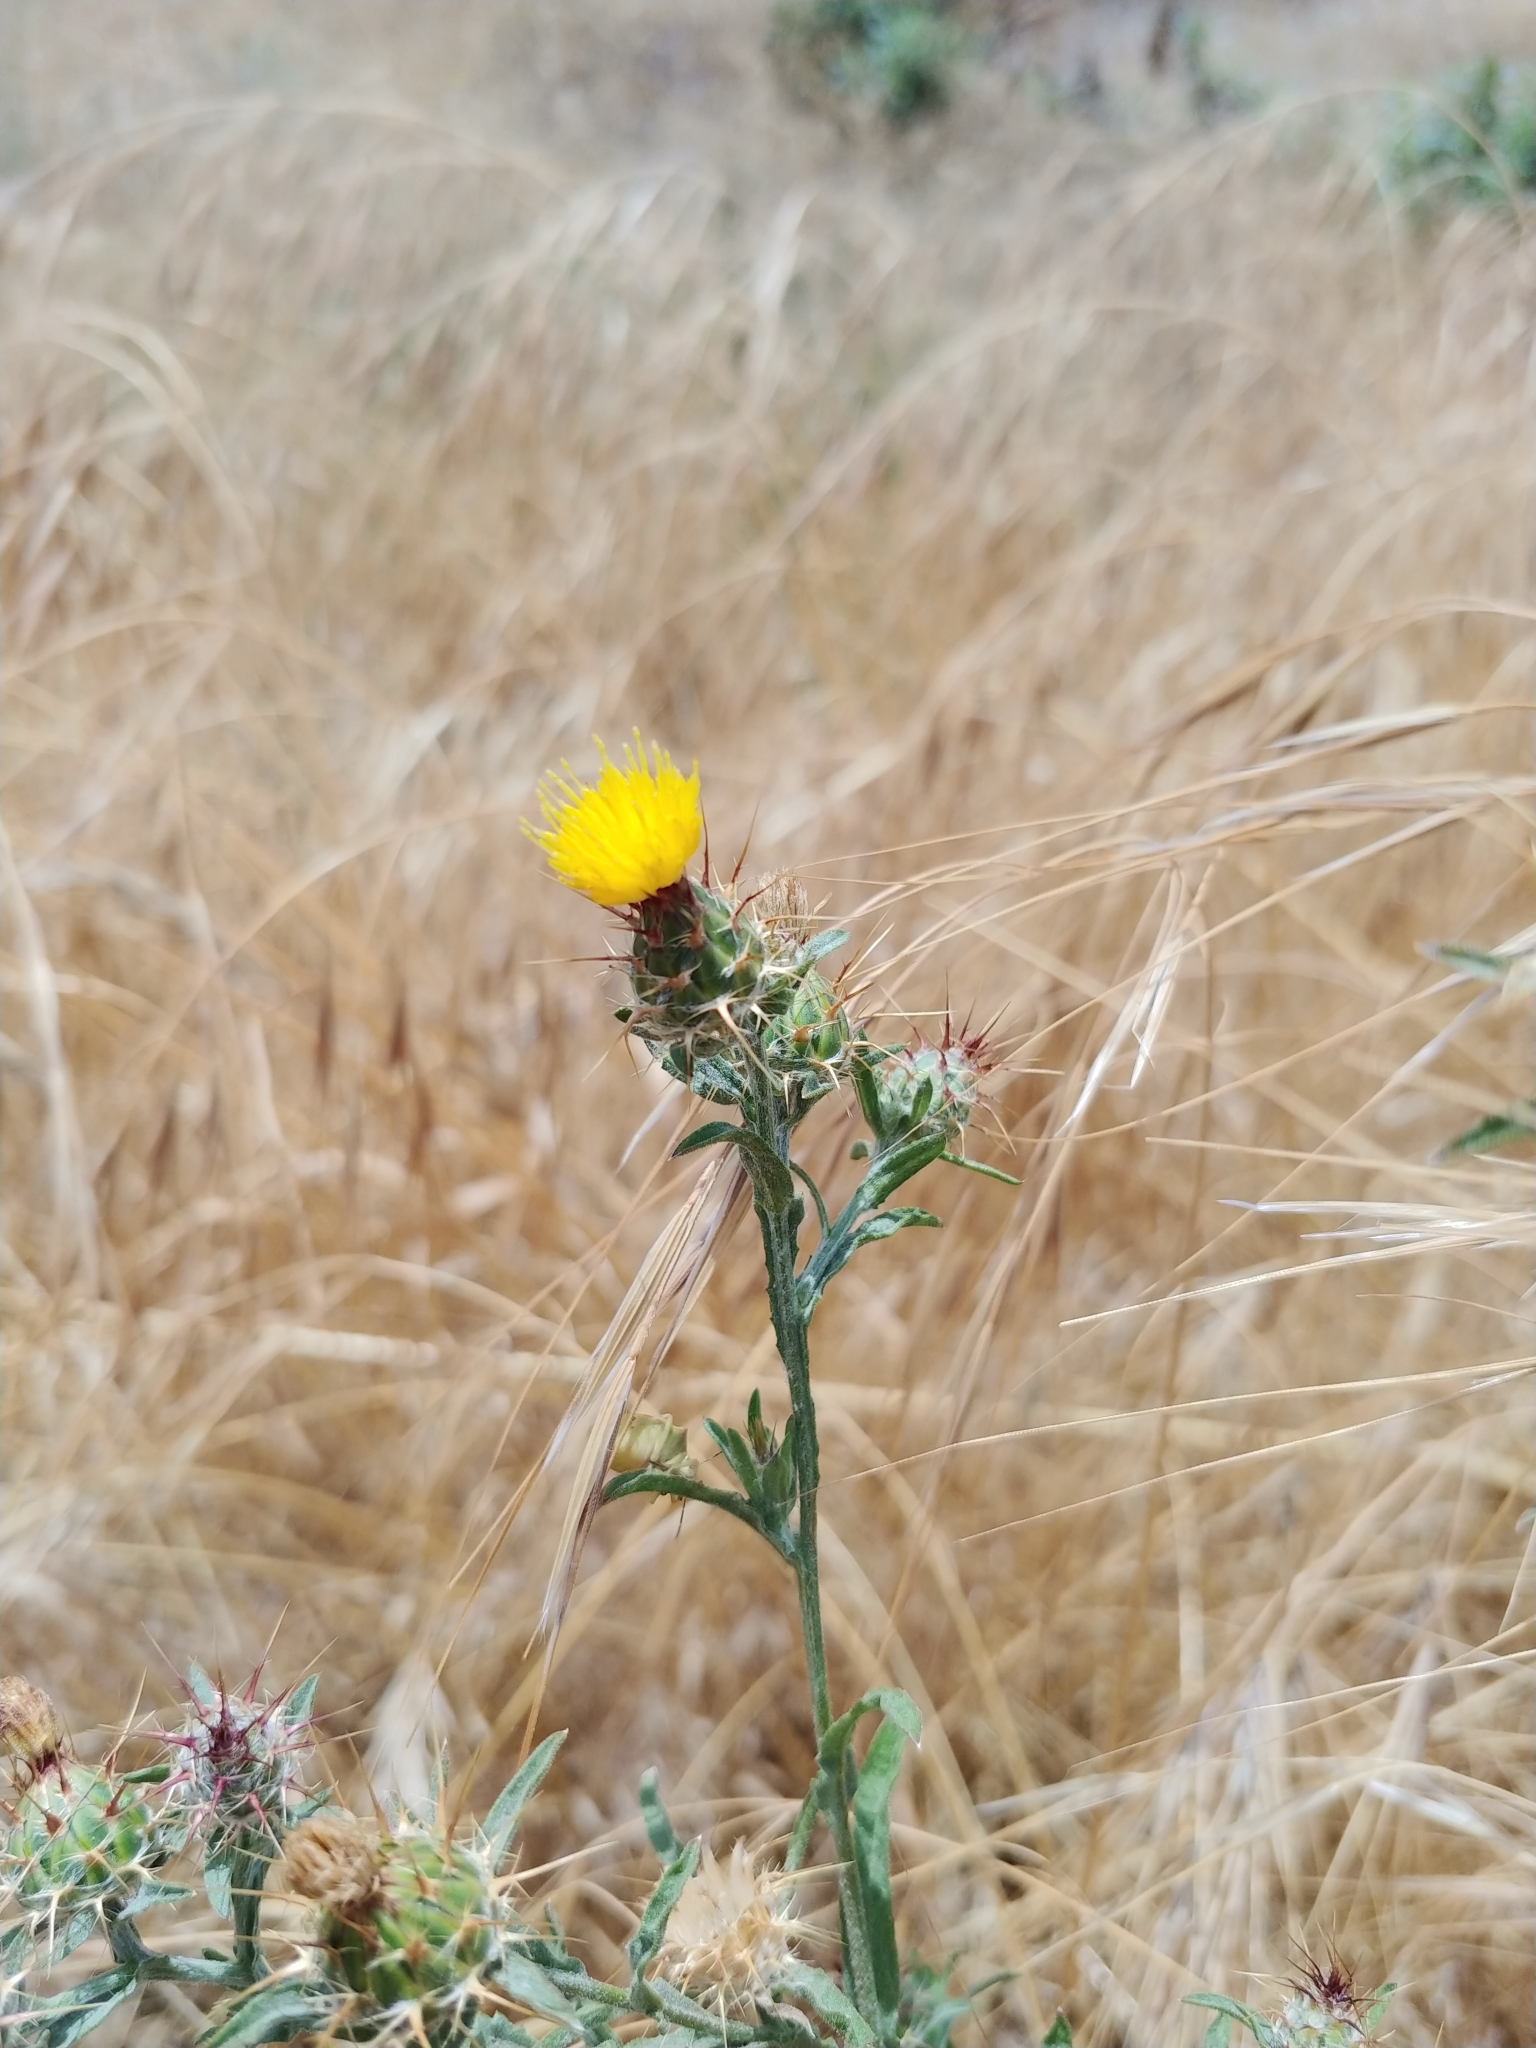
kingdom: Plantae
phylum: Tracheophyta
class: Magnoliopsida
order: Asterales
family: Asteraceae
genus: Centaurea
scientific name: Centaurea melitensis
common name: Maltese star-thistle
